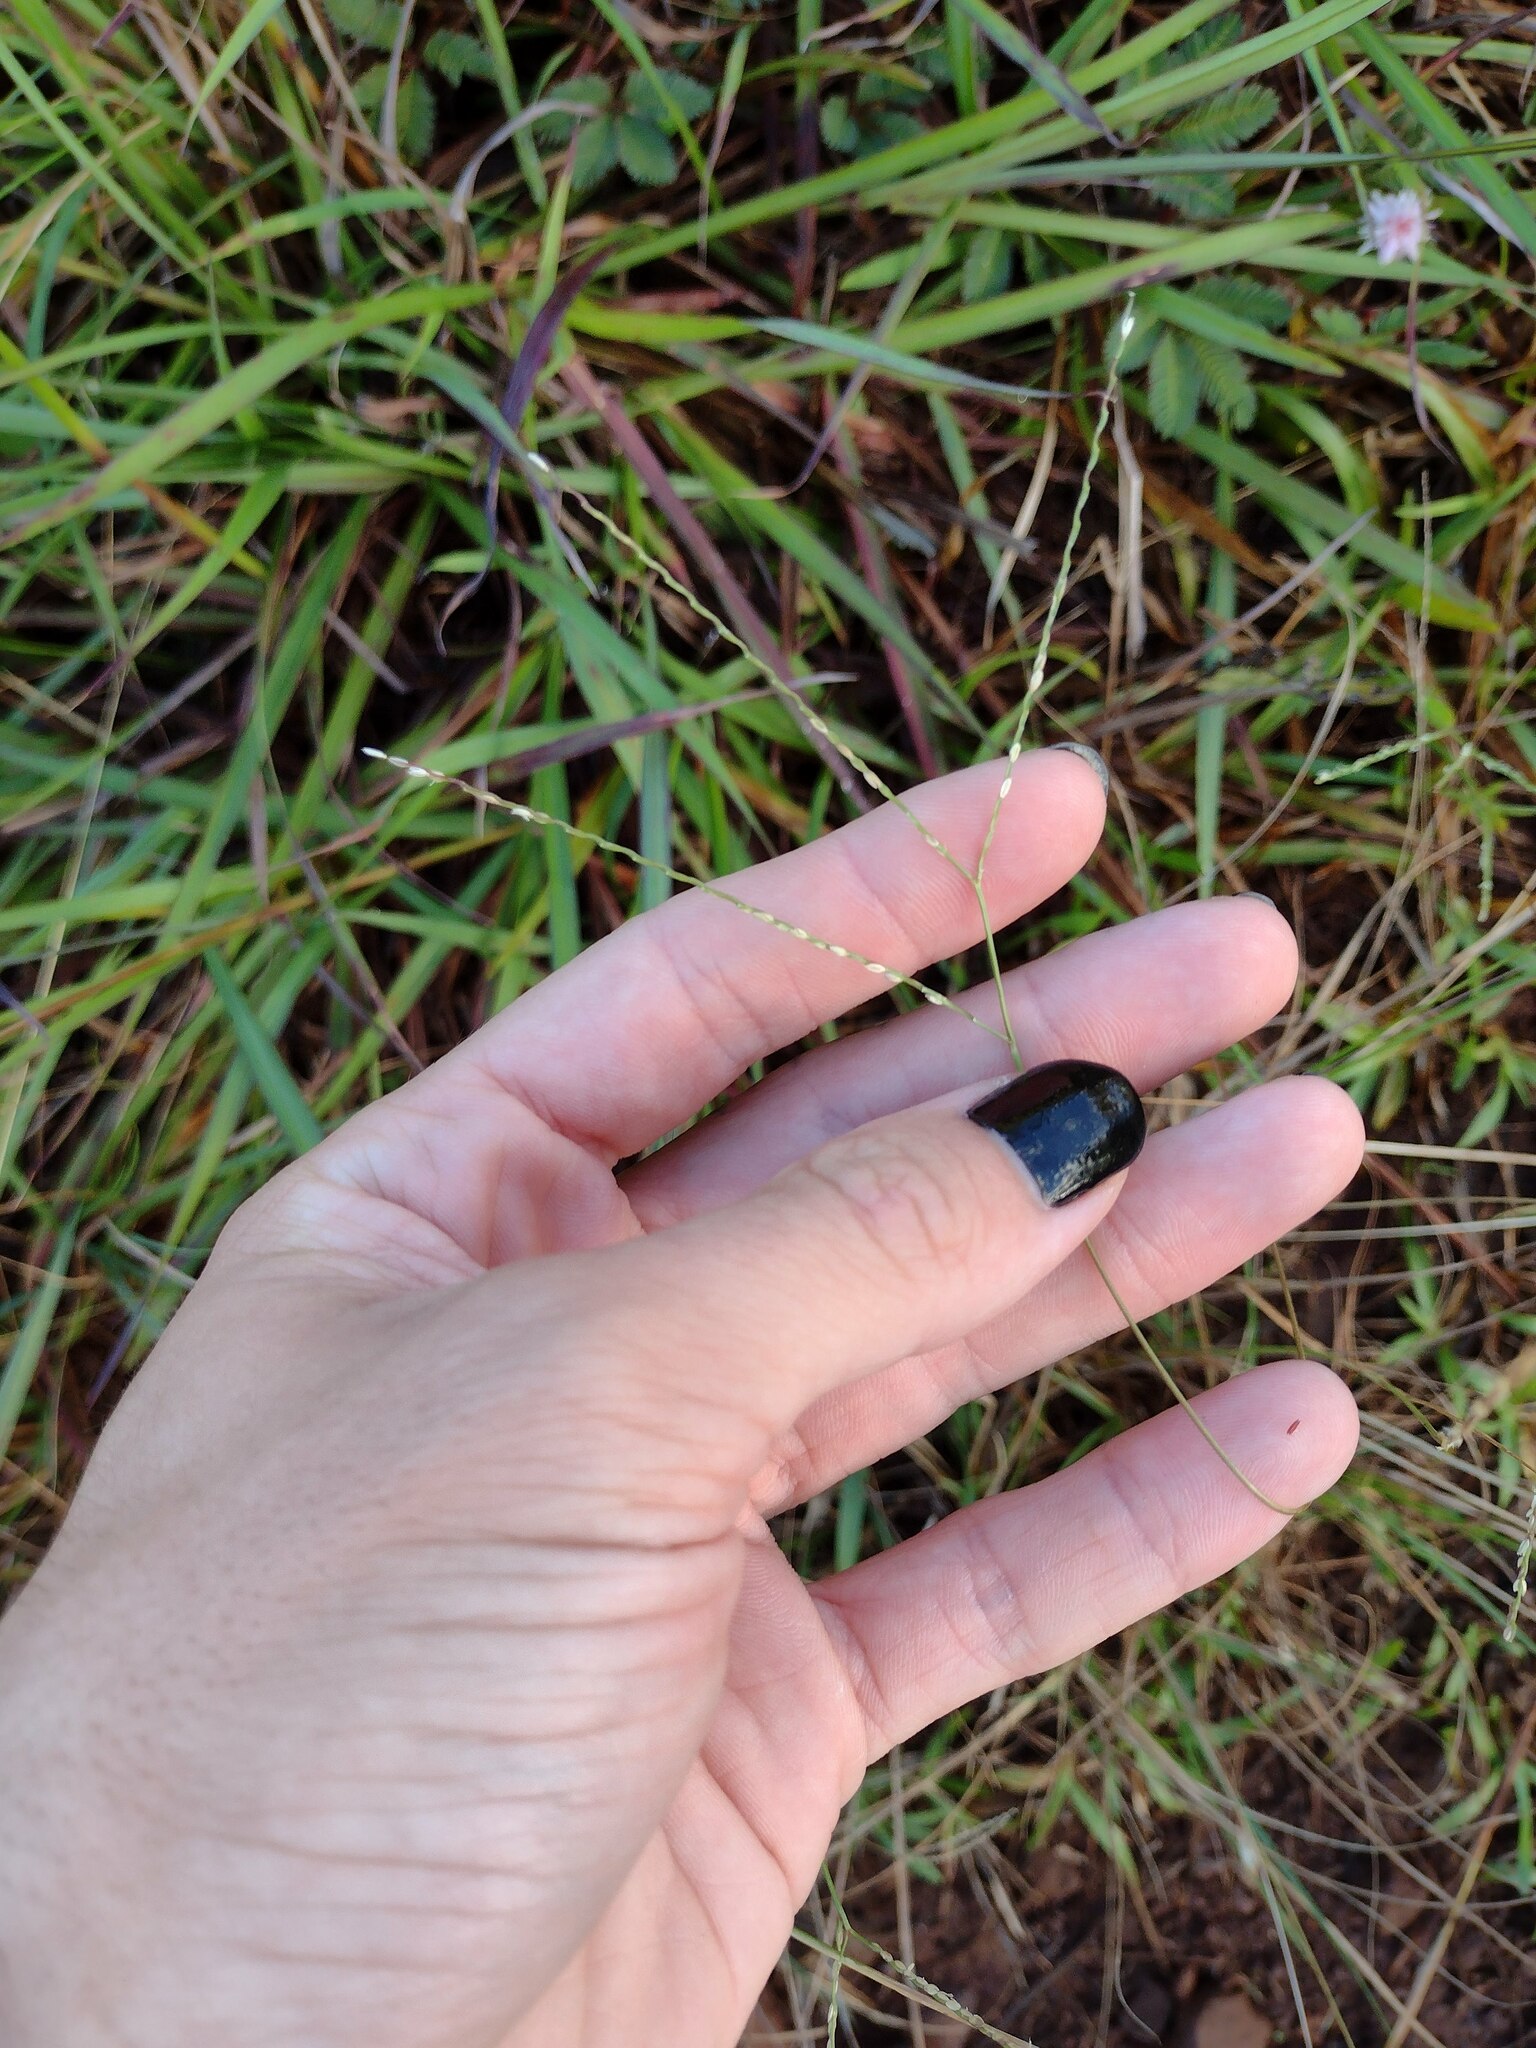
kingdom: Plantae
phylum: Tracheophyta
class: Liliopsida
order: Poales
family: Poaceae
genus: Axonopus
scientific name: Axonopus fissifolius
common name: Common carpetgrass
